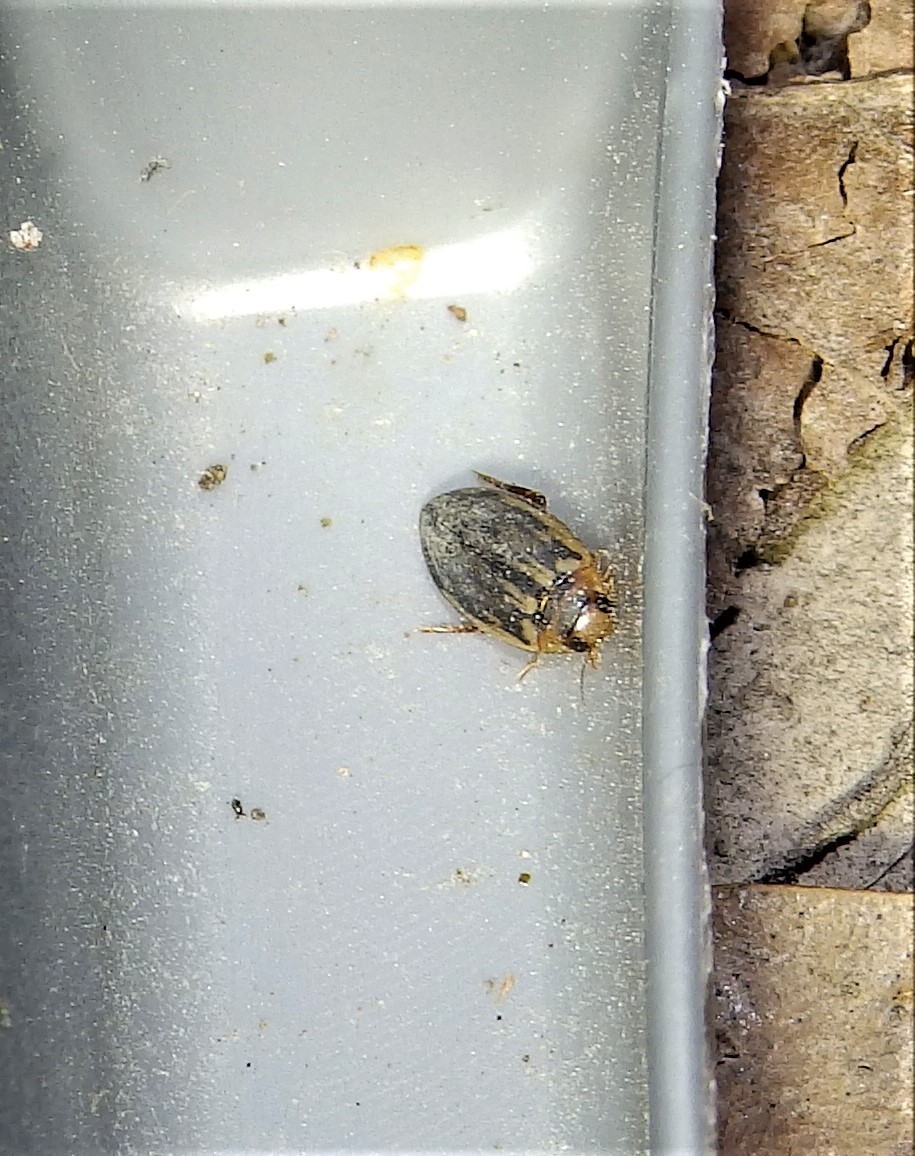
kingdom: Animalia
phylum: Arthropoda
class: Insecta
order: Coleoptera
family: Dytiscidae
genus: Coptotomus
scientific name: Coptotomus
